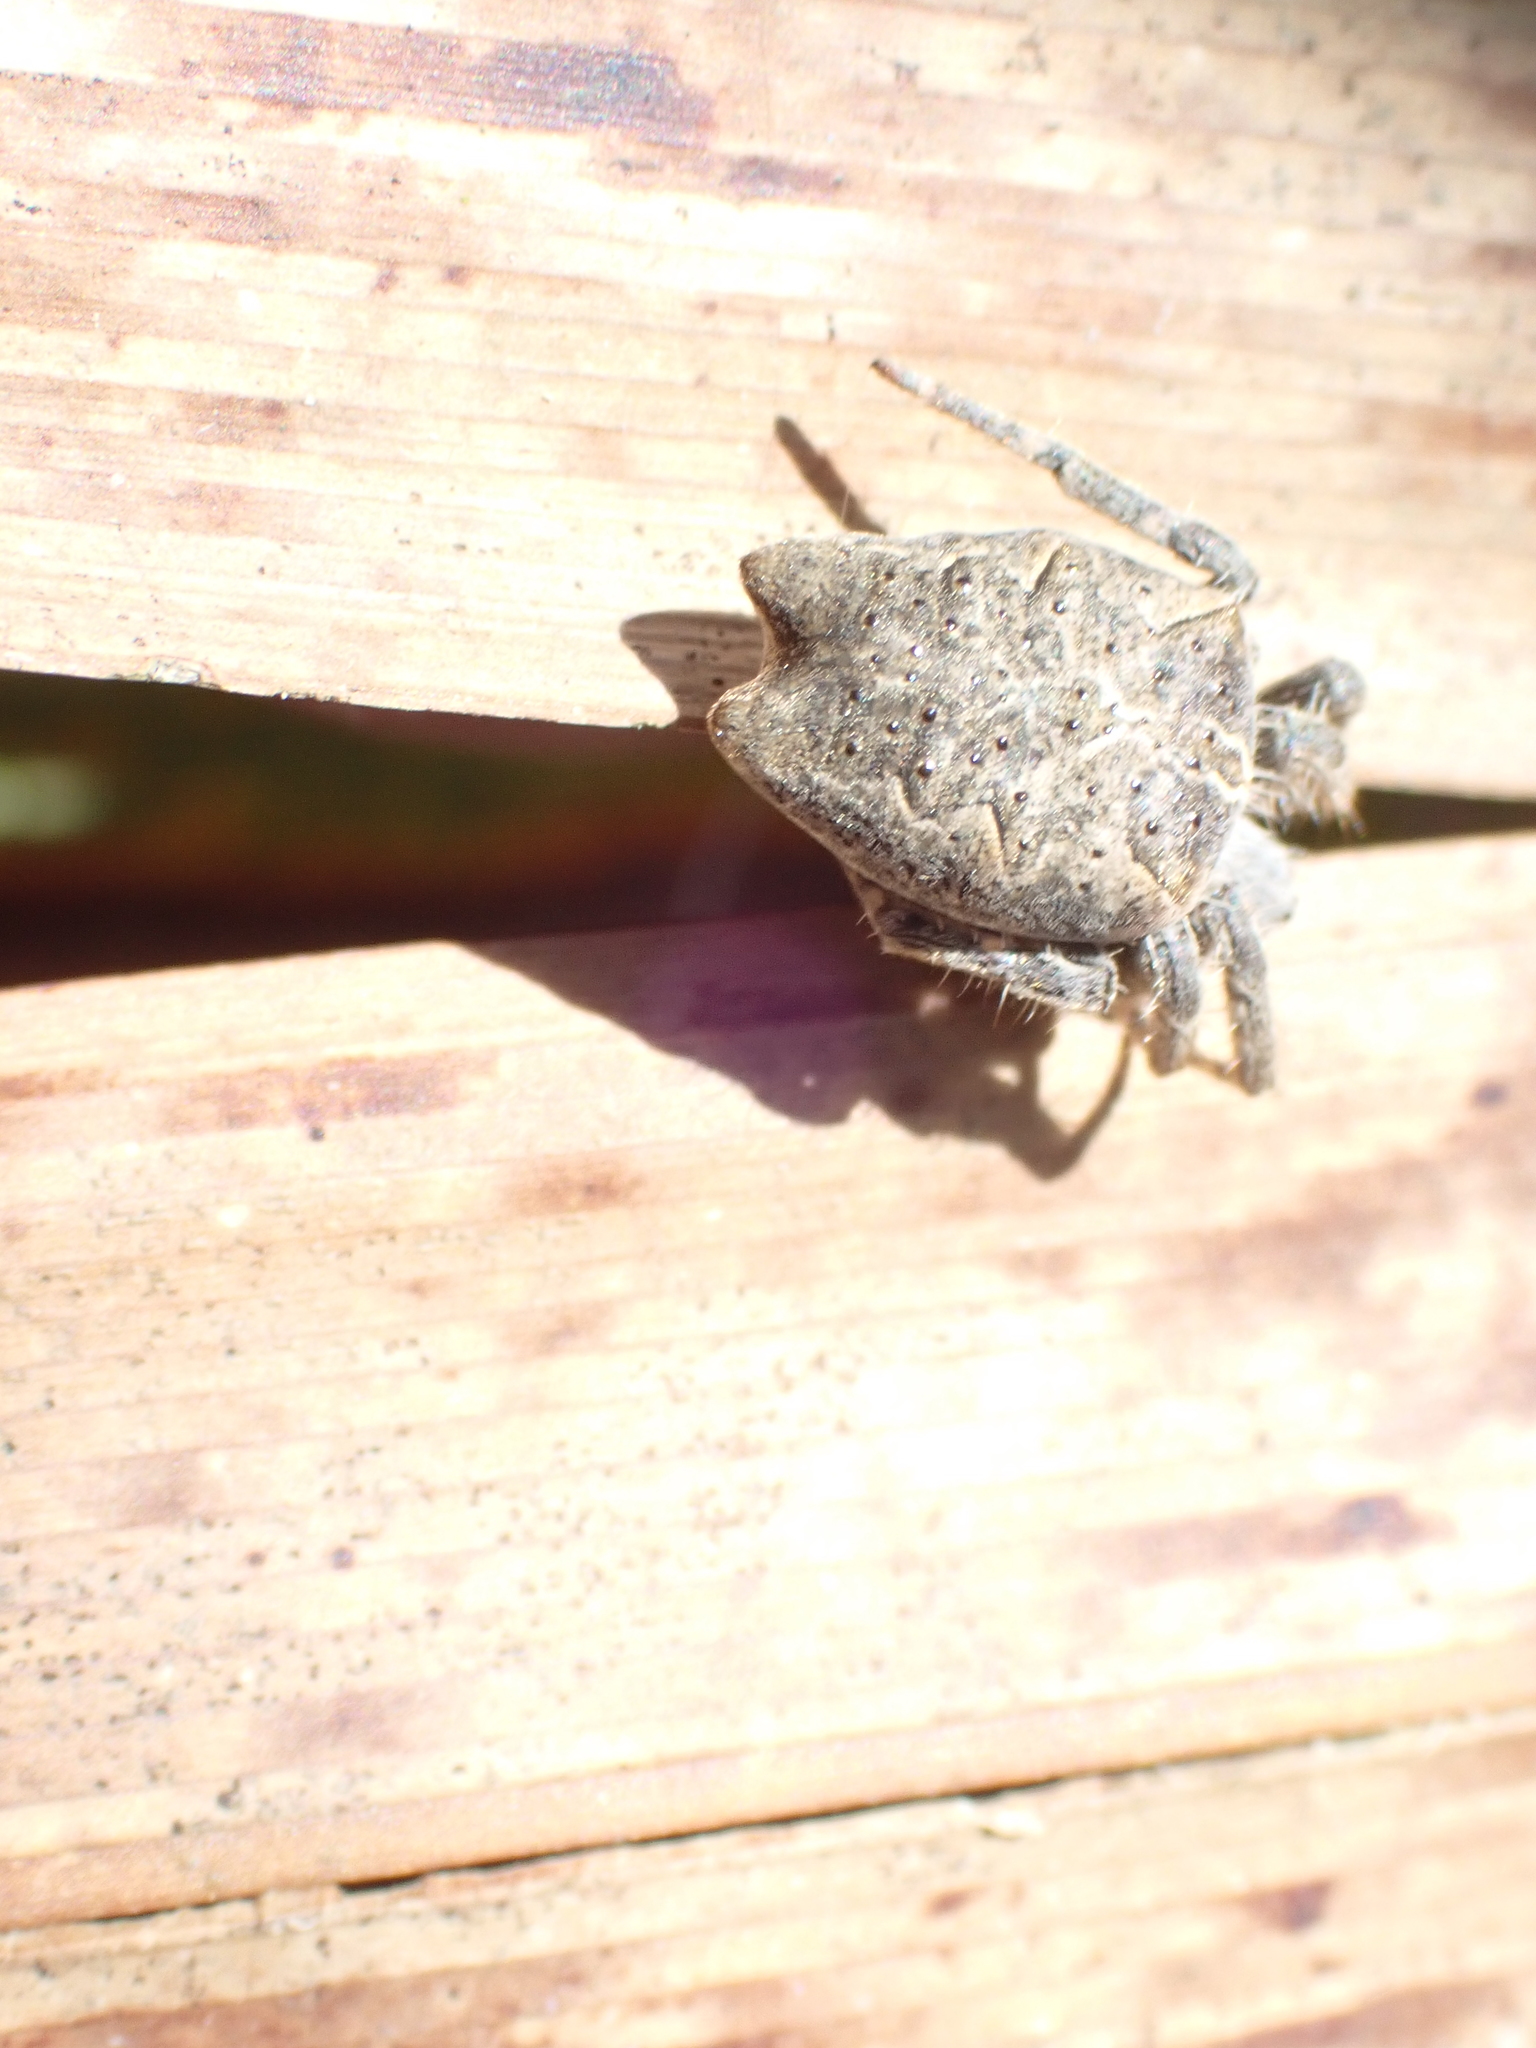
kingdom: Animalia
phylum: Arthropoda
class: Arachnida
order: Araneae
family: Araneidae
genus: Cyrtophora
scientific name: Cyrtophora citricola
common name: Orb weavers
